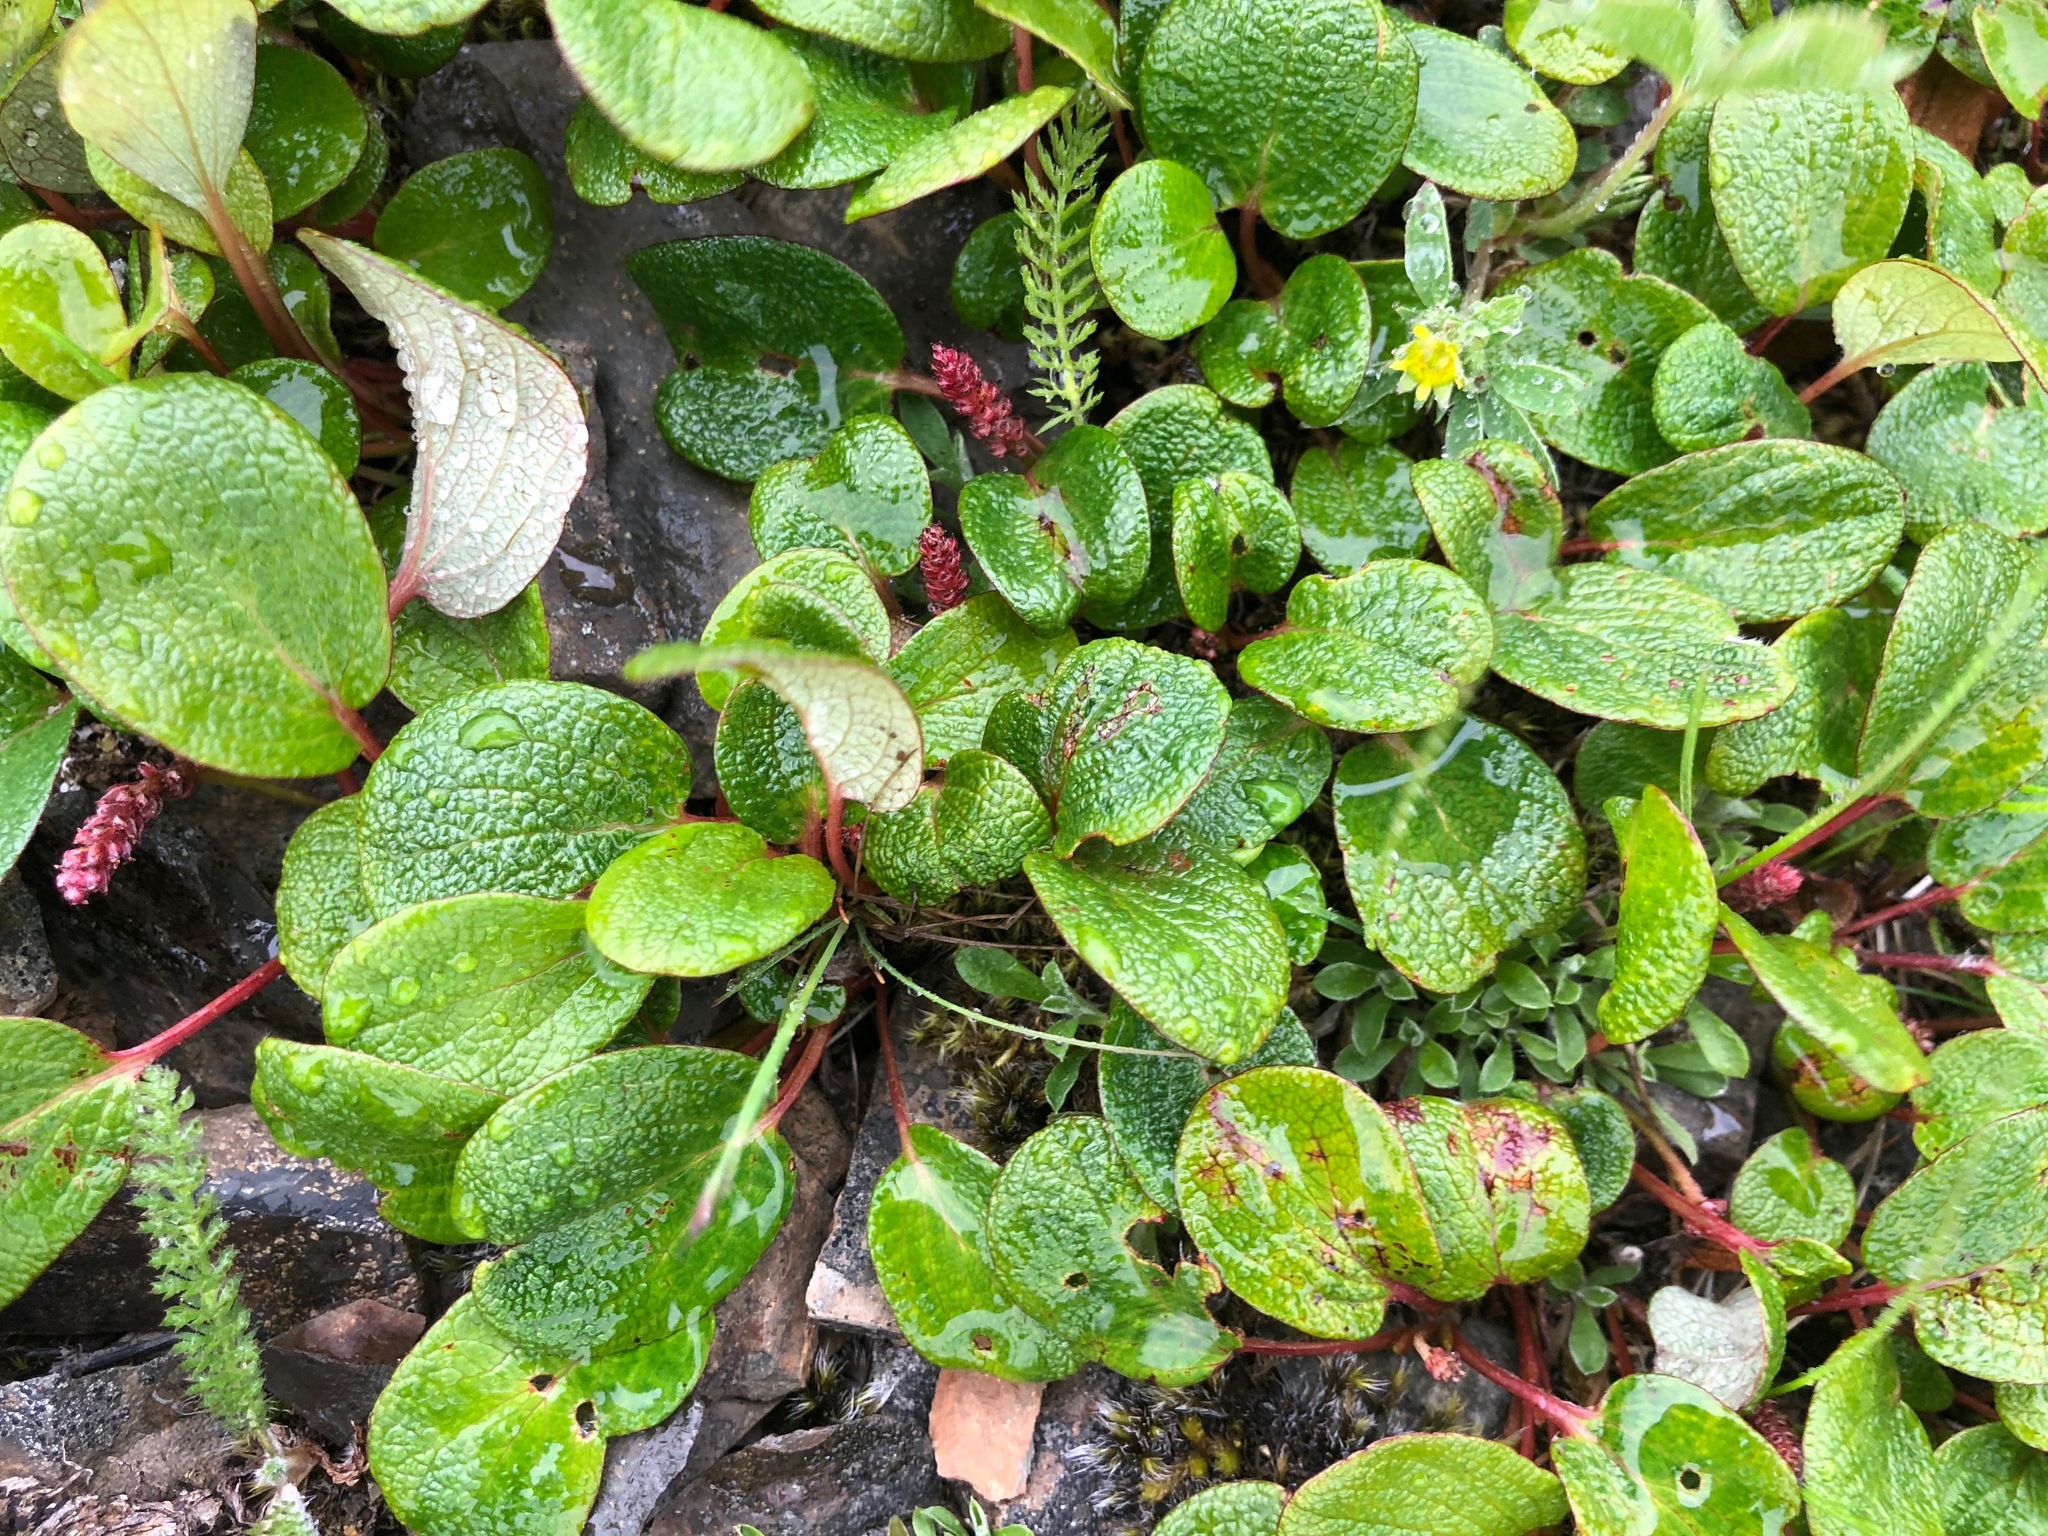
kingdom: Plantae
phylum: Tracheophyta
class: Magnoliopsida
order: Malpighiales
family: Salicaceae
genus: Salix
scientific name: Salix reticulata
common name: Net-leaved willow
